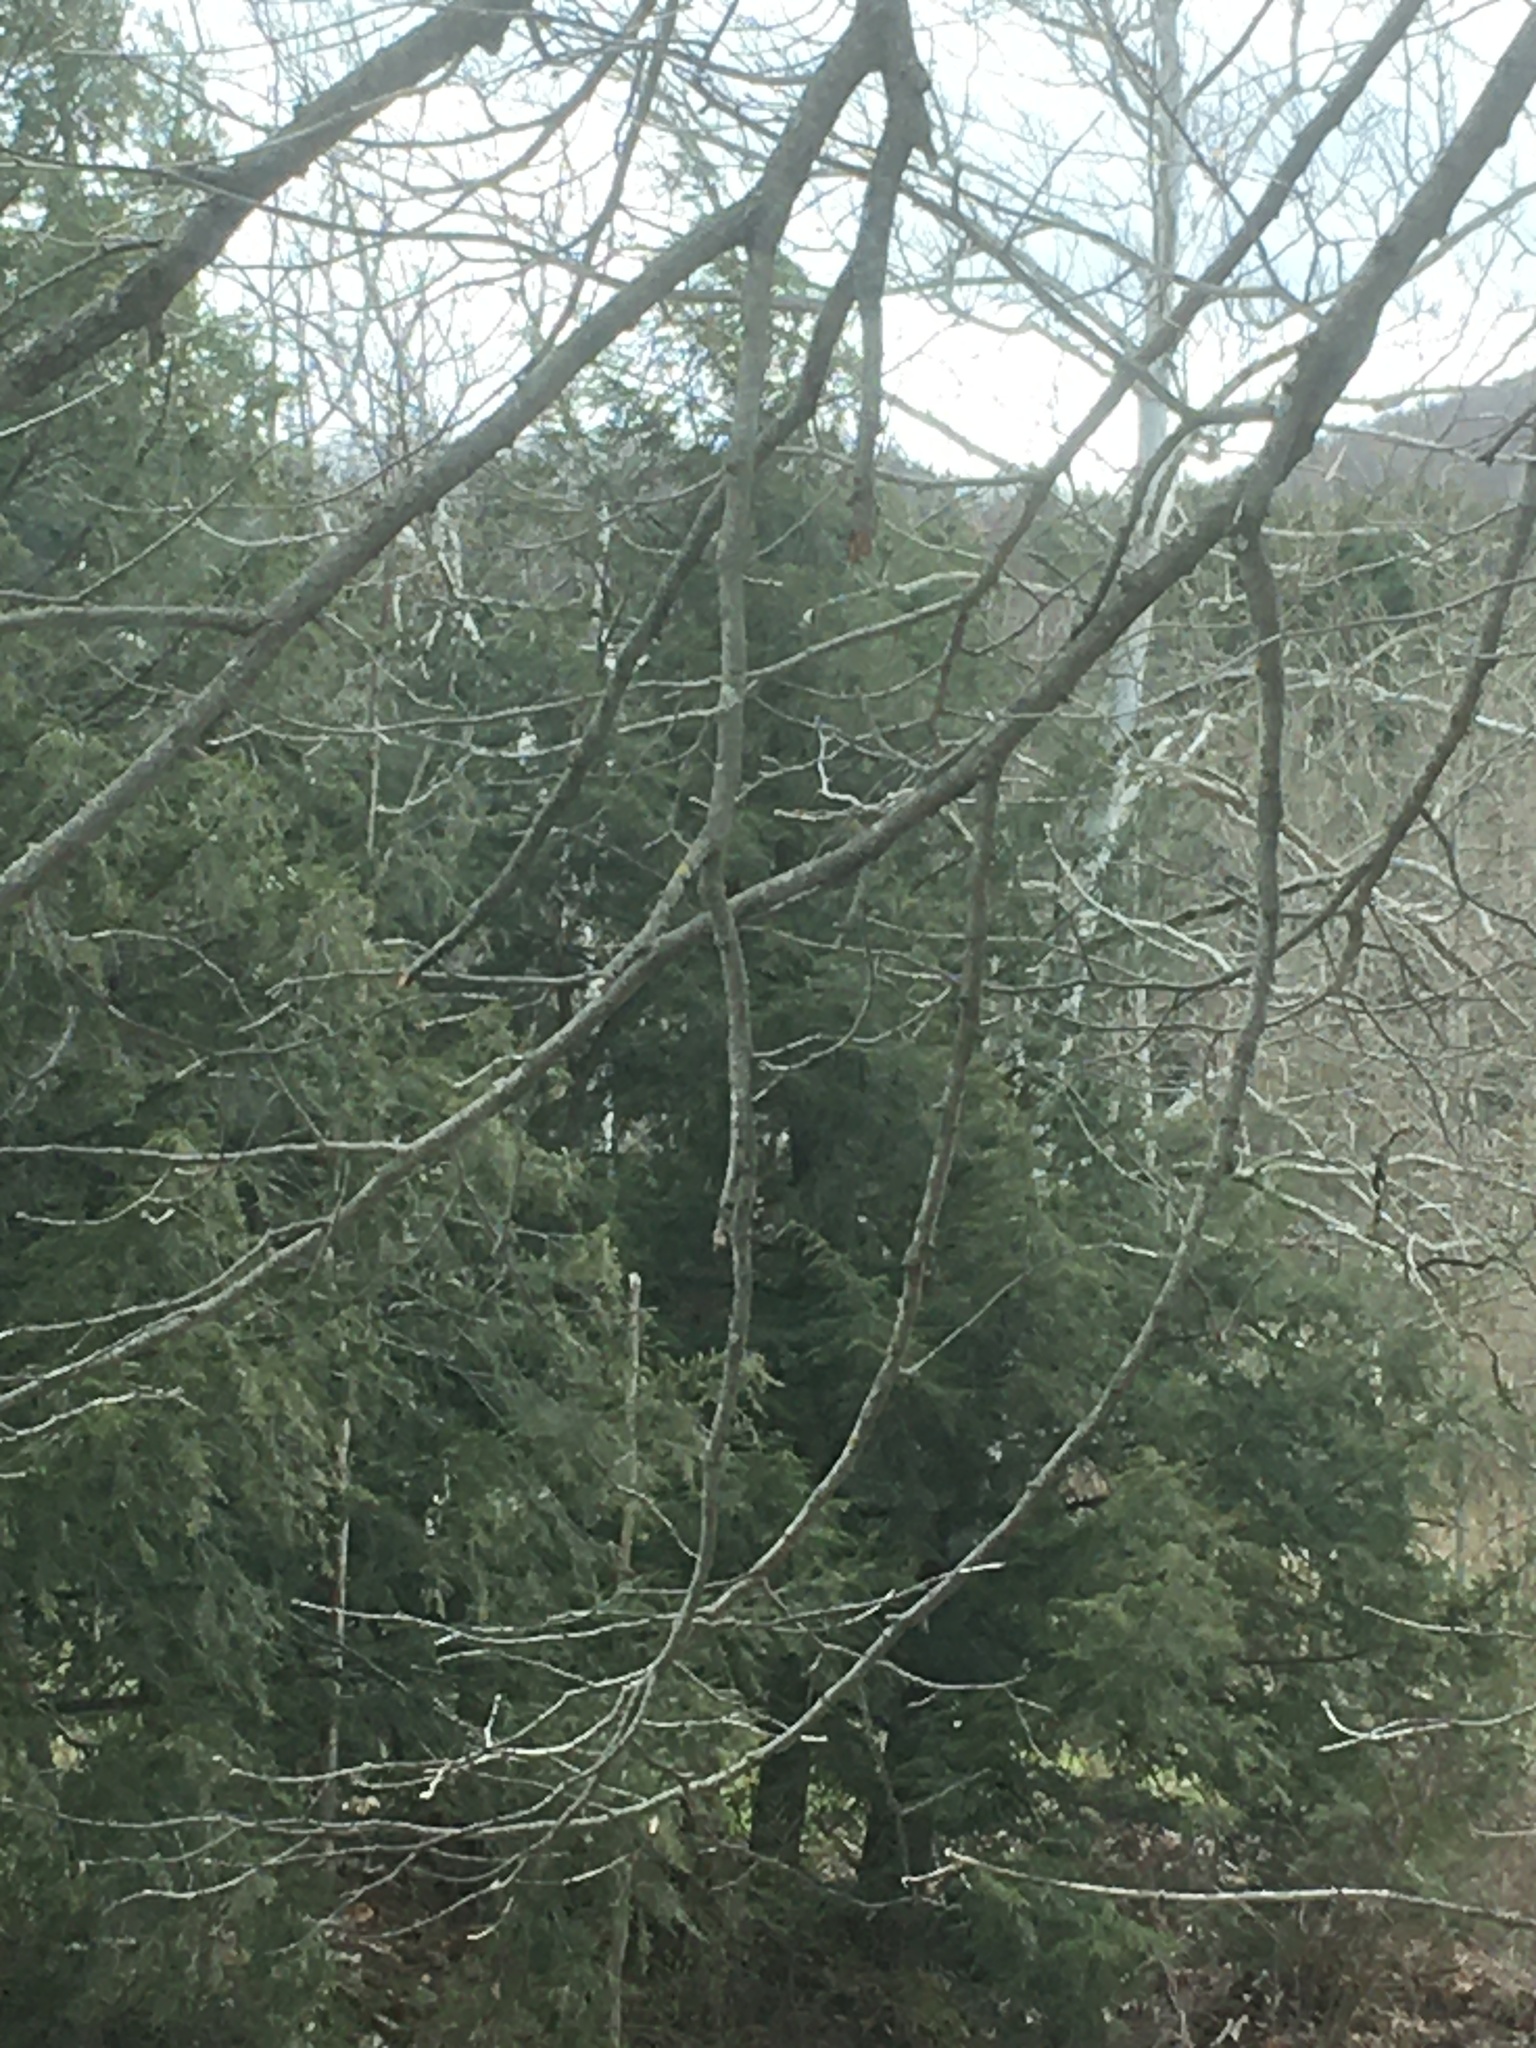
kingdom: Plantae
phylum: Tracheophyta
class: Magnoliopsida
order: Proteales
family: Platanaceae
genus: Platanus
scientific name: Platanus occidentalis
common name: American sycamore
